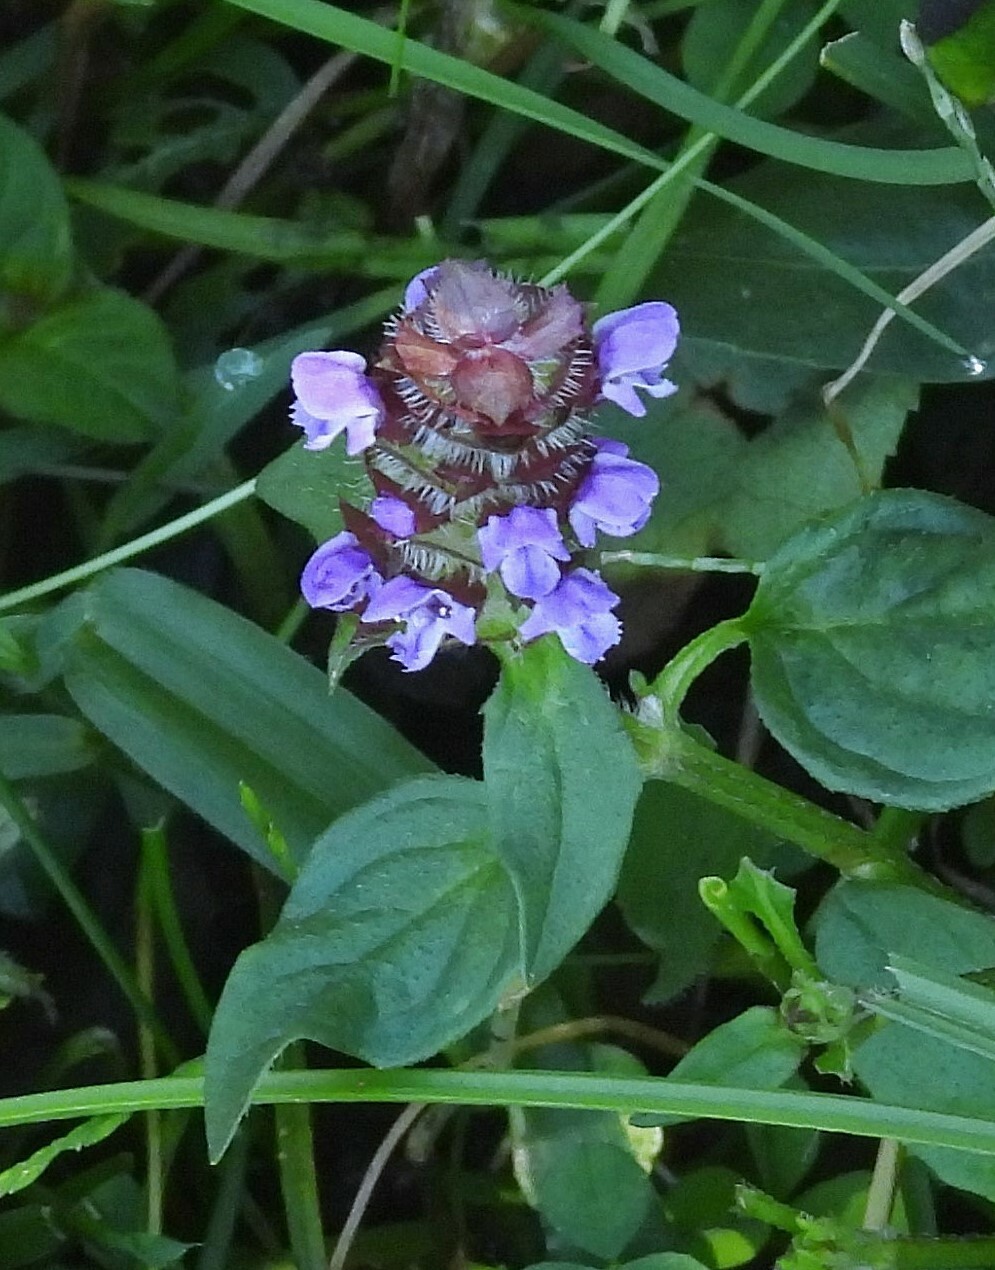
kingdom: Plantae
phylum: Tracheophyta
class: Magnoliopsida
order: Lamiales
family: Lamiaceae
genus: Prunella
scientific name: Prunella vulgaris
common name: Heal-all
